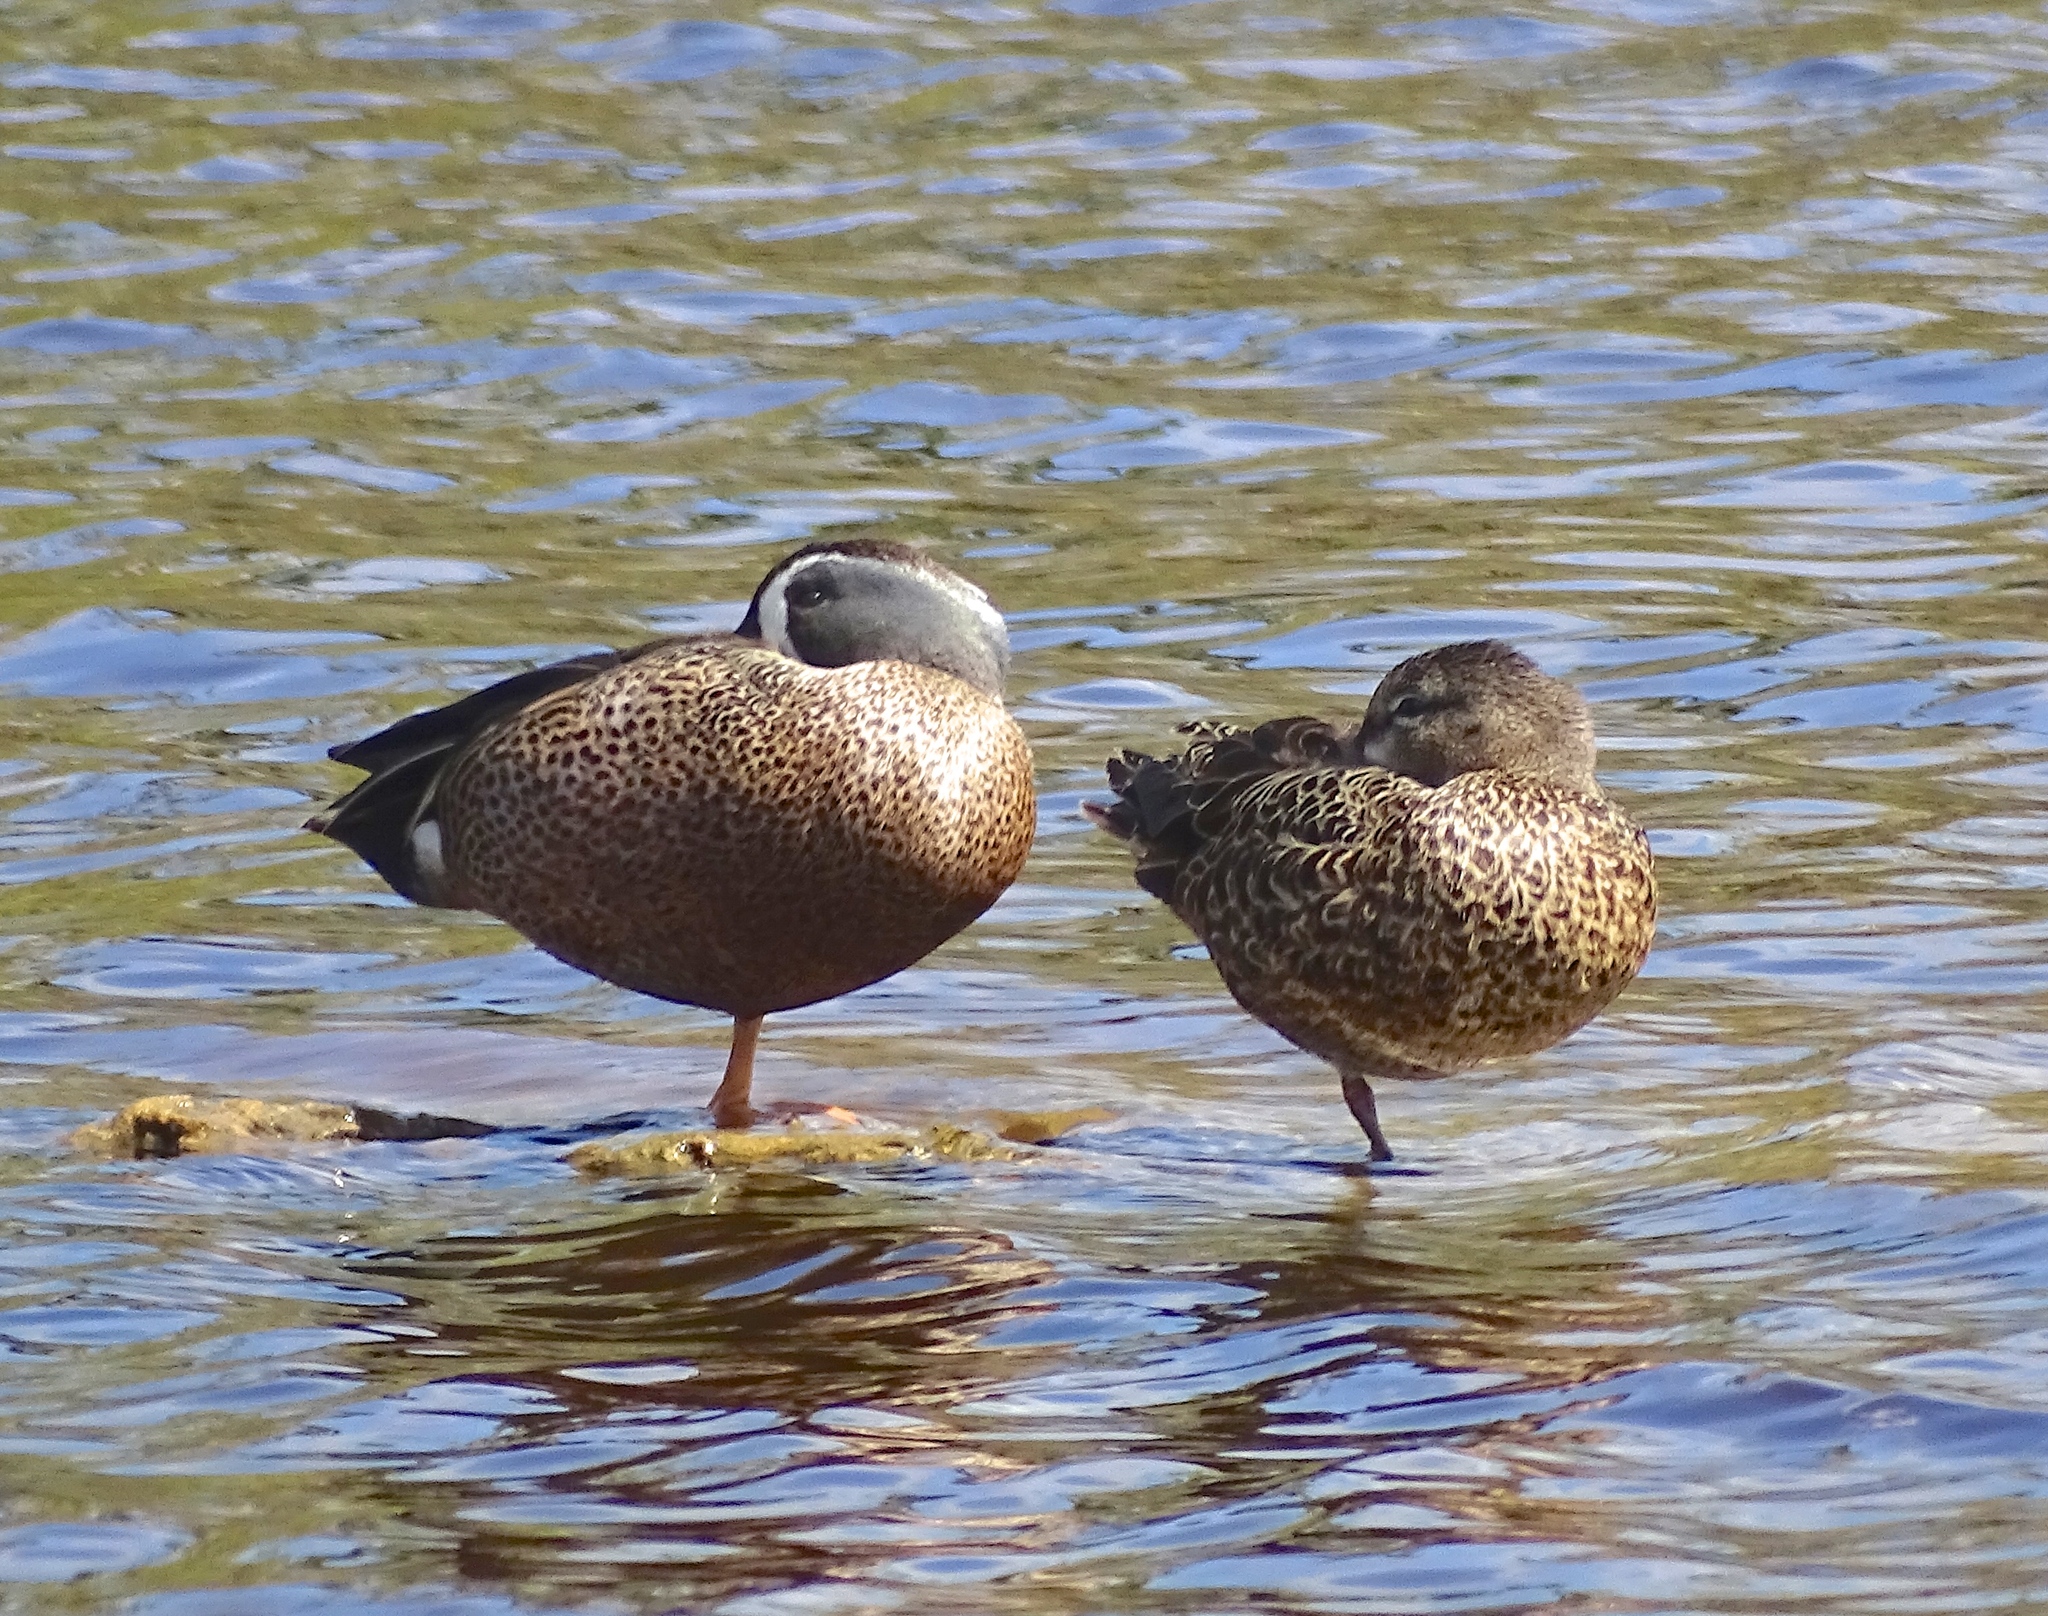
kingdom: Animalia
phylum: Chordata
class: Aves
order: Anseriformes
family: Anatidae
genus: Spatula
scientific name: Spatula discors
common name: Blue-winged teal
